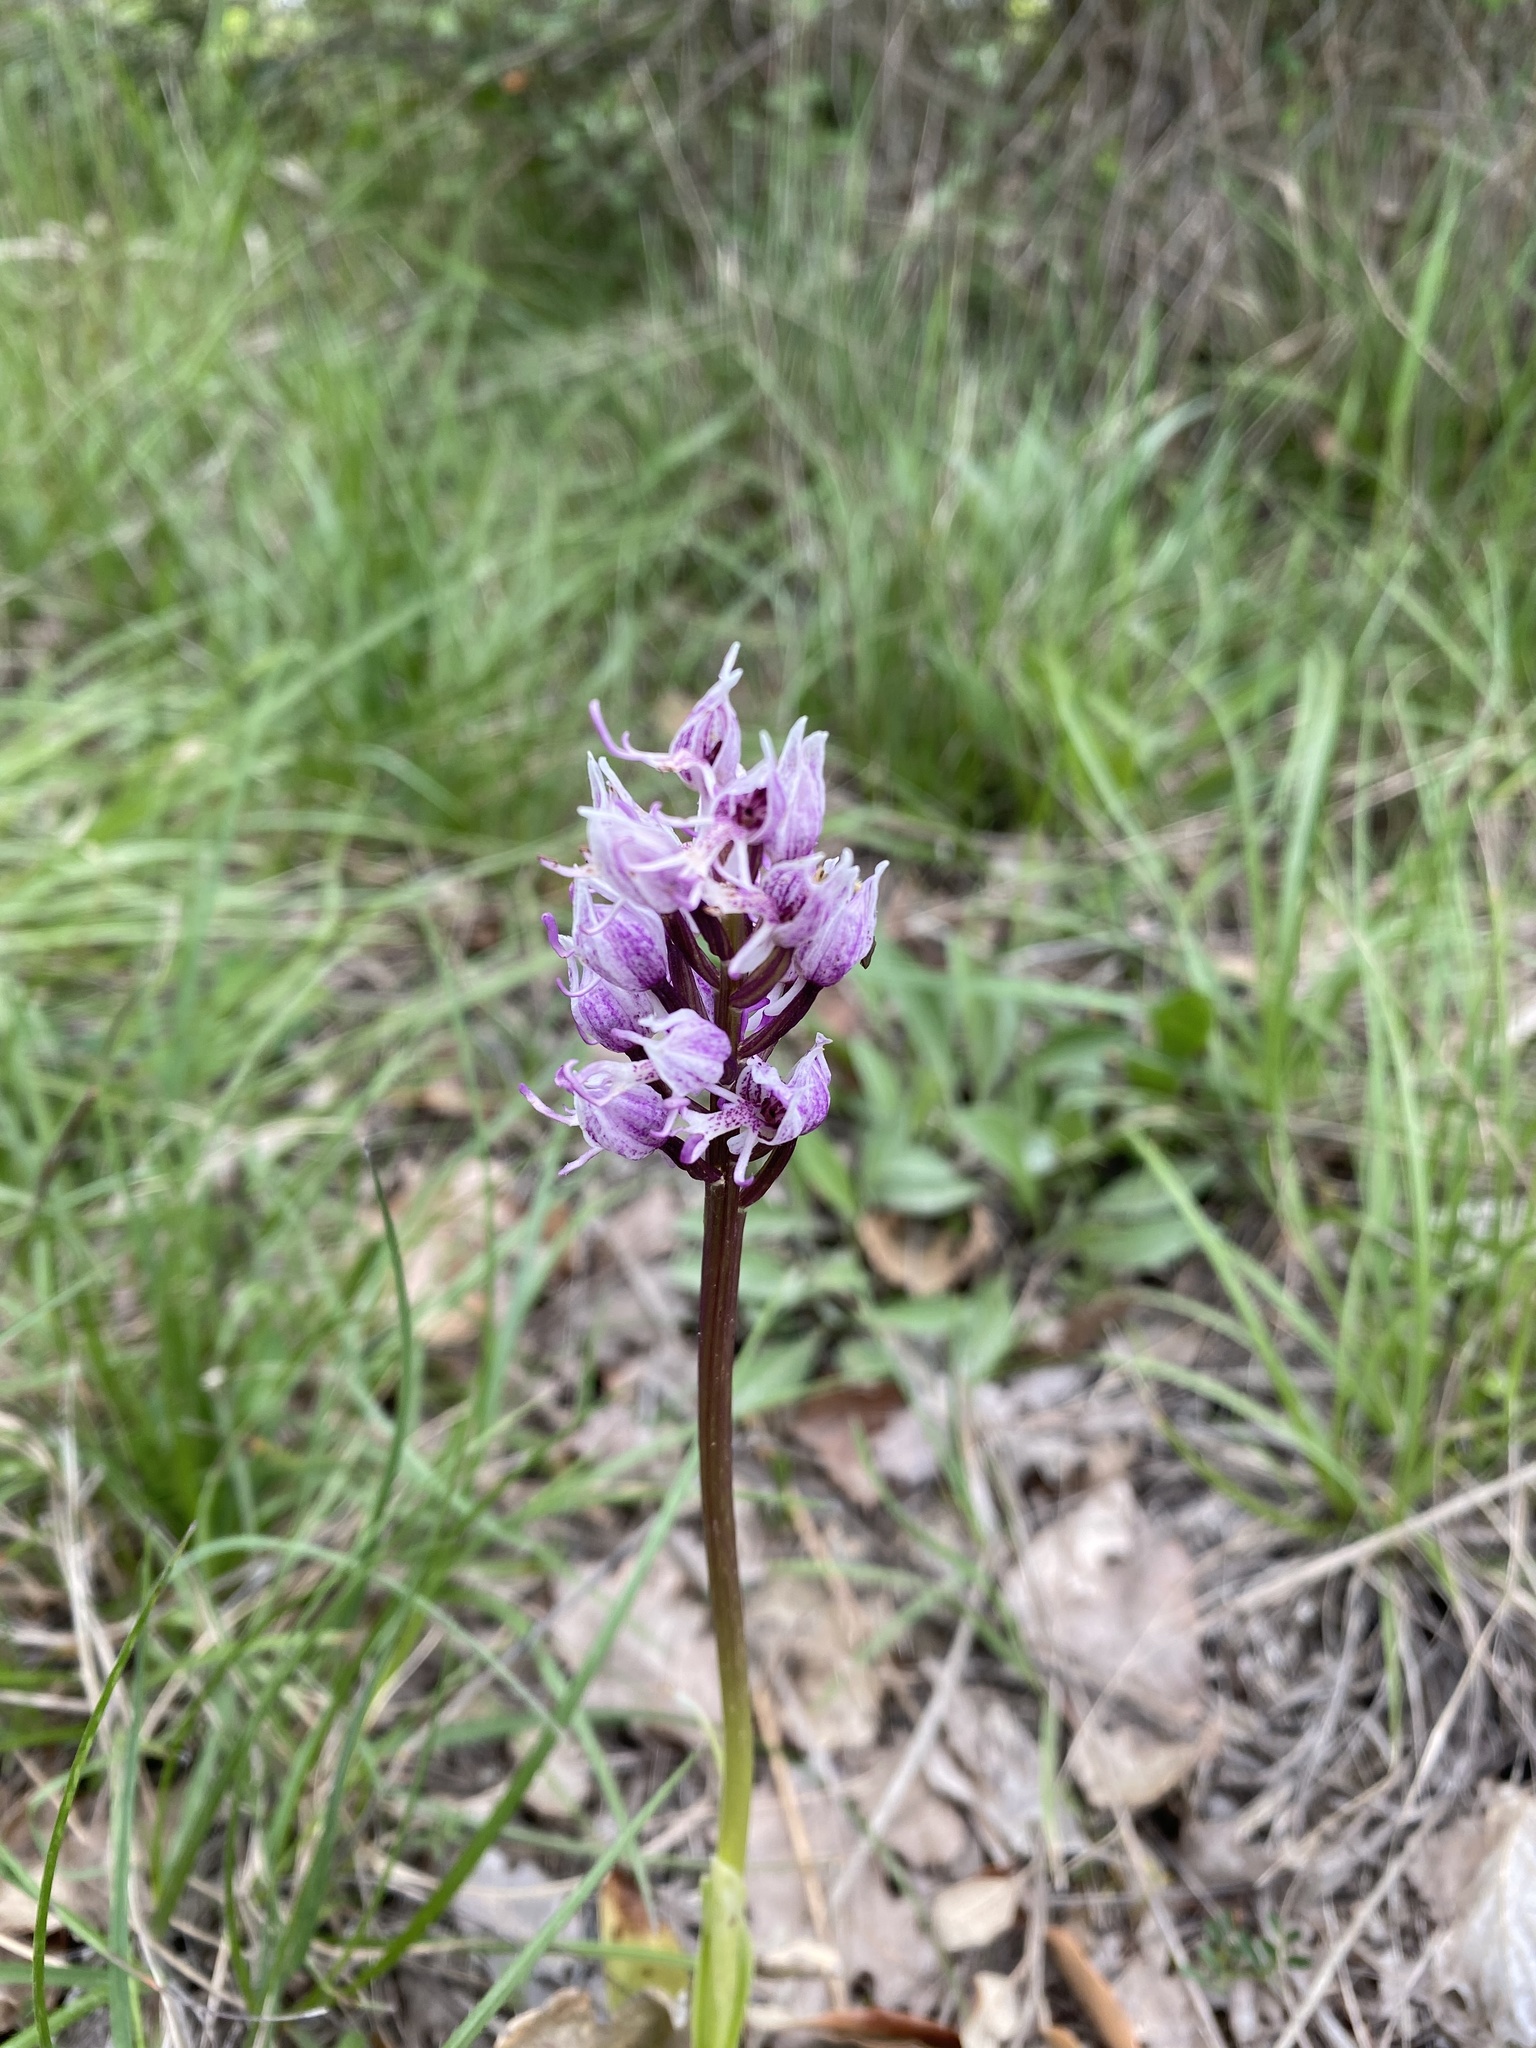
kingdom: Plantae
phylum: Tracheophyta
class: Liliopsida
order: Asparagales
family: Orchidaceae
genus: Orchis
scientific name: Orchis simia
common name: Monkey orchid
